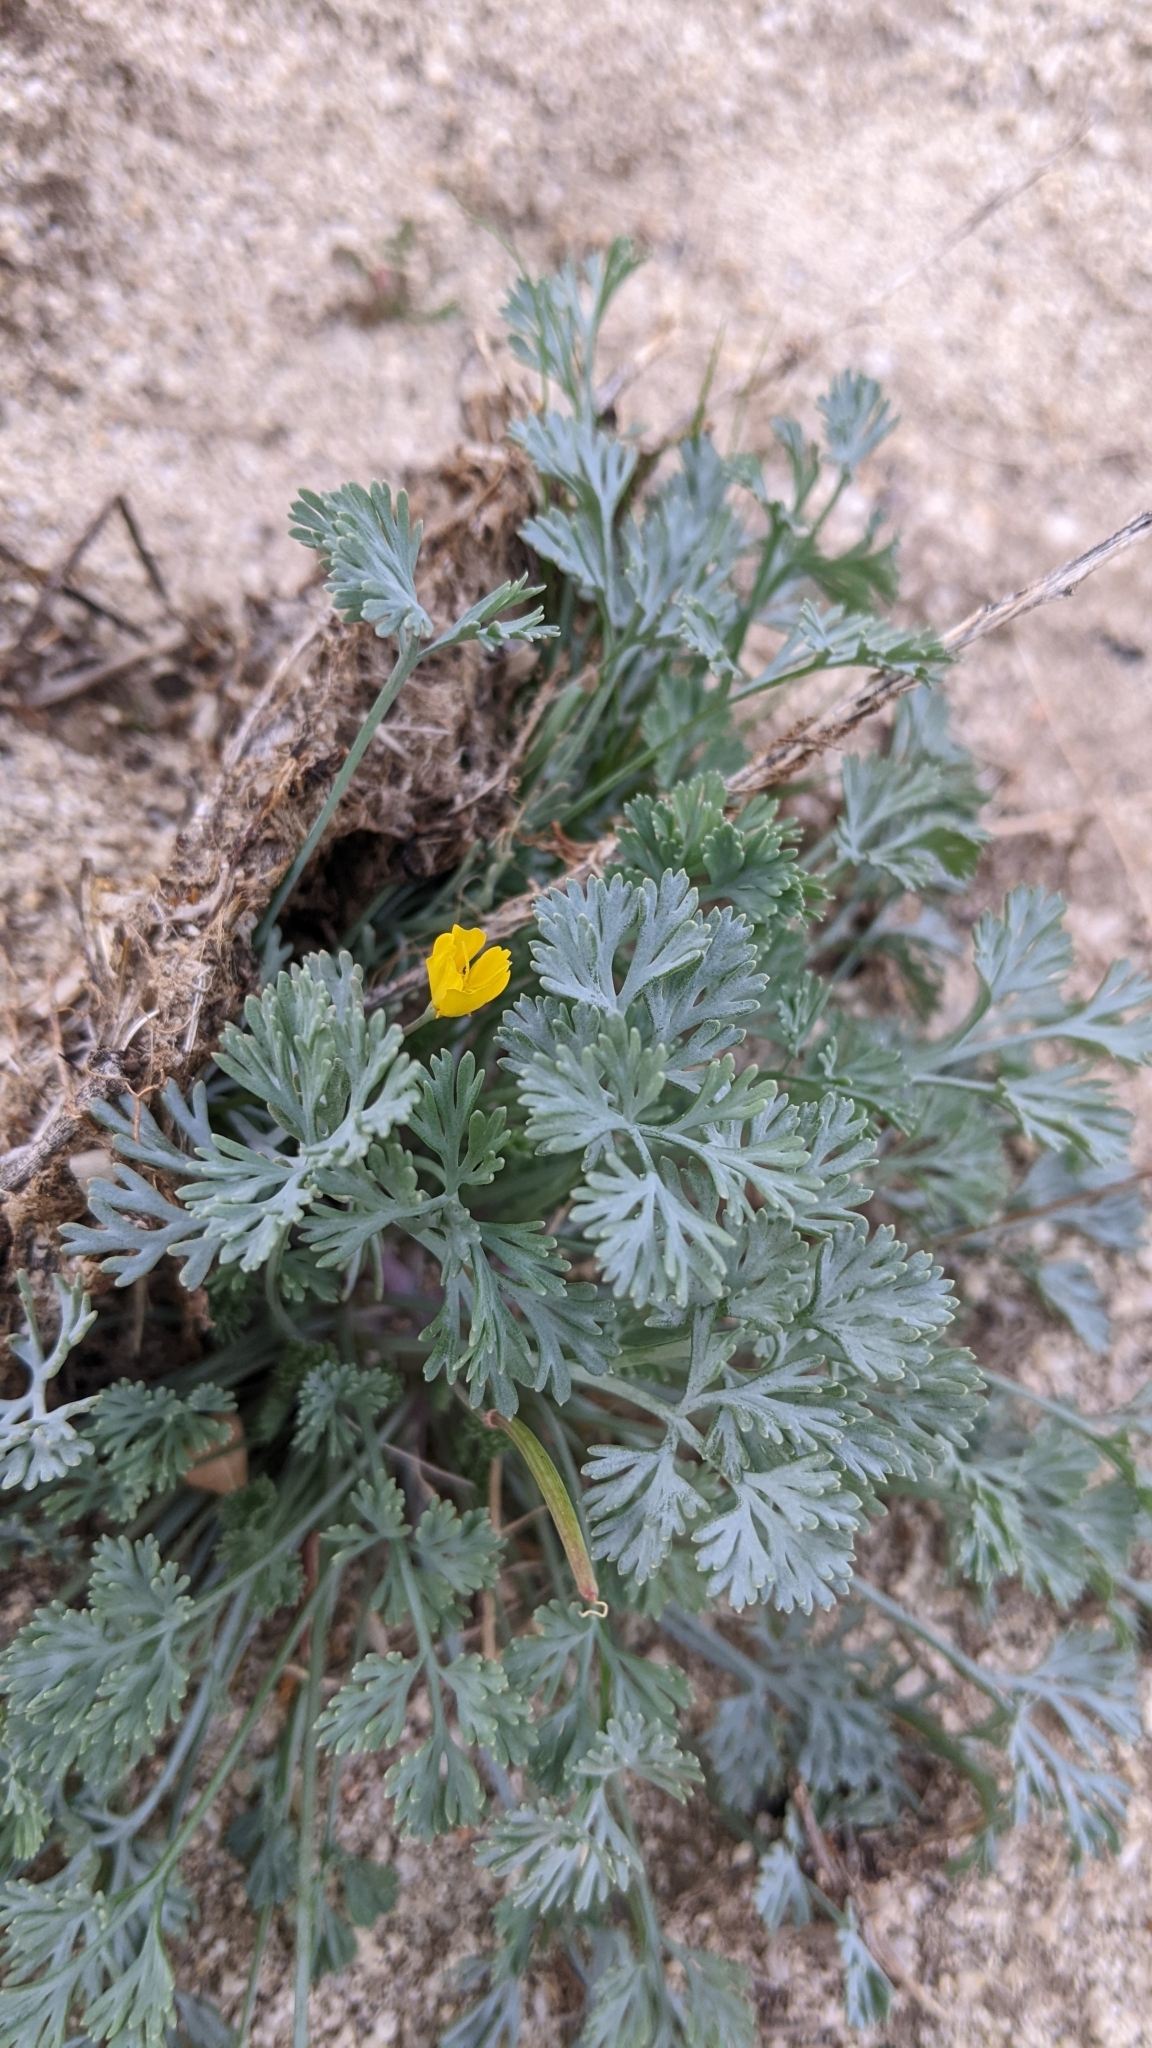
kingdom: Plantae
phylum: Tracheophyta
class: Magnoliopsida
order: Ranunculales
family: Papaveraceae
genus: Eschscholzia
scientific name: Eschscholzia minutiflora
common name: Small-flower california-poppy
